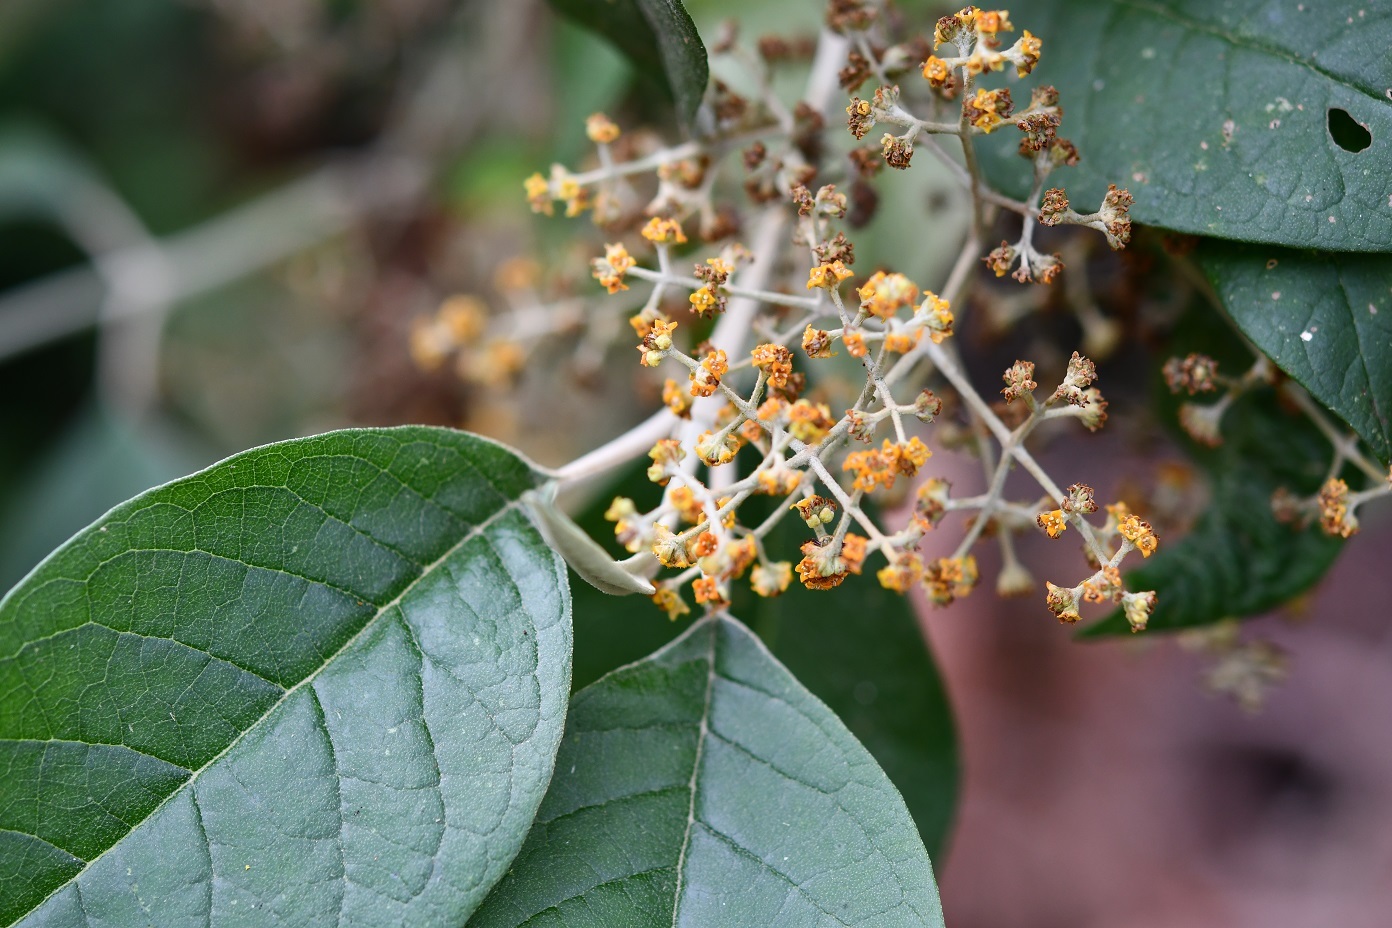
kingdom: Plantae
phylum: Tracheophyta
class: Magnoliopsida
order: Lamiales
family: Scrophulariaceae
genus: Buddleja
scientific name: Buddleja cordata
